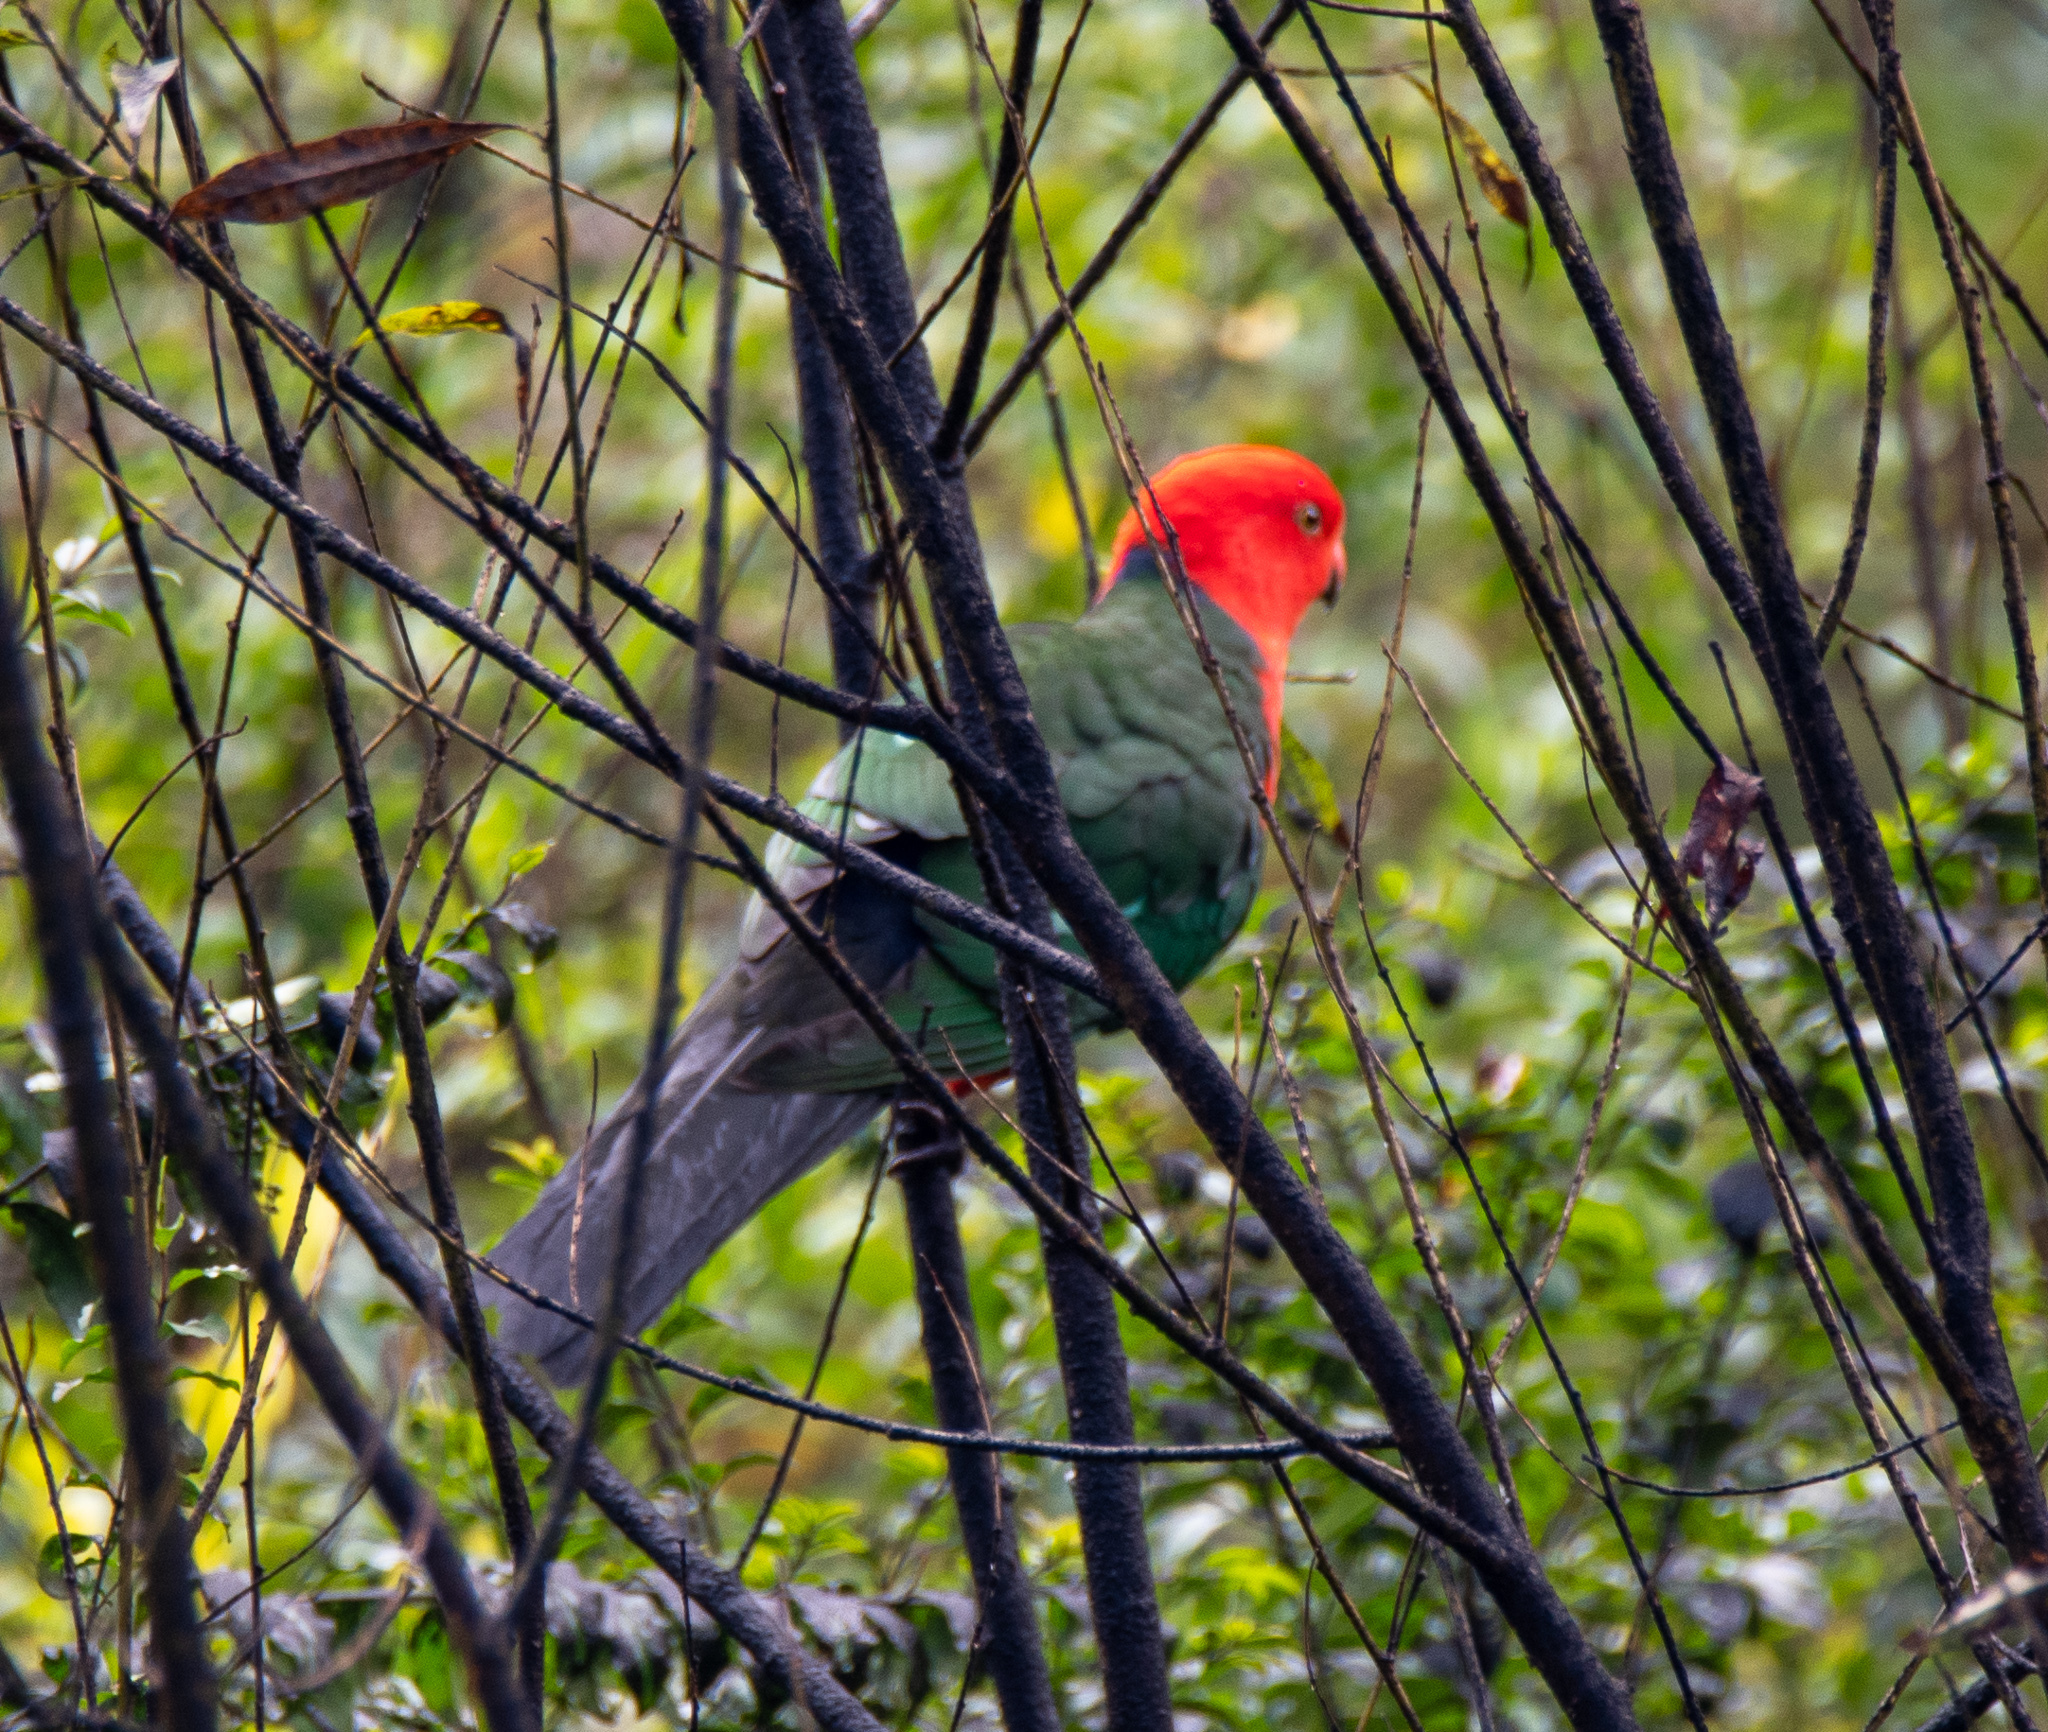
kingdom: Animalia
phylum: Chordata
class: Aves
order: Psittaciformes
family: Psittacidae
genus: Alisterus
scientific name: Alisterus scapularis
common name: Australian king parrot
